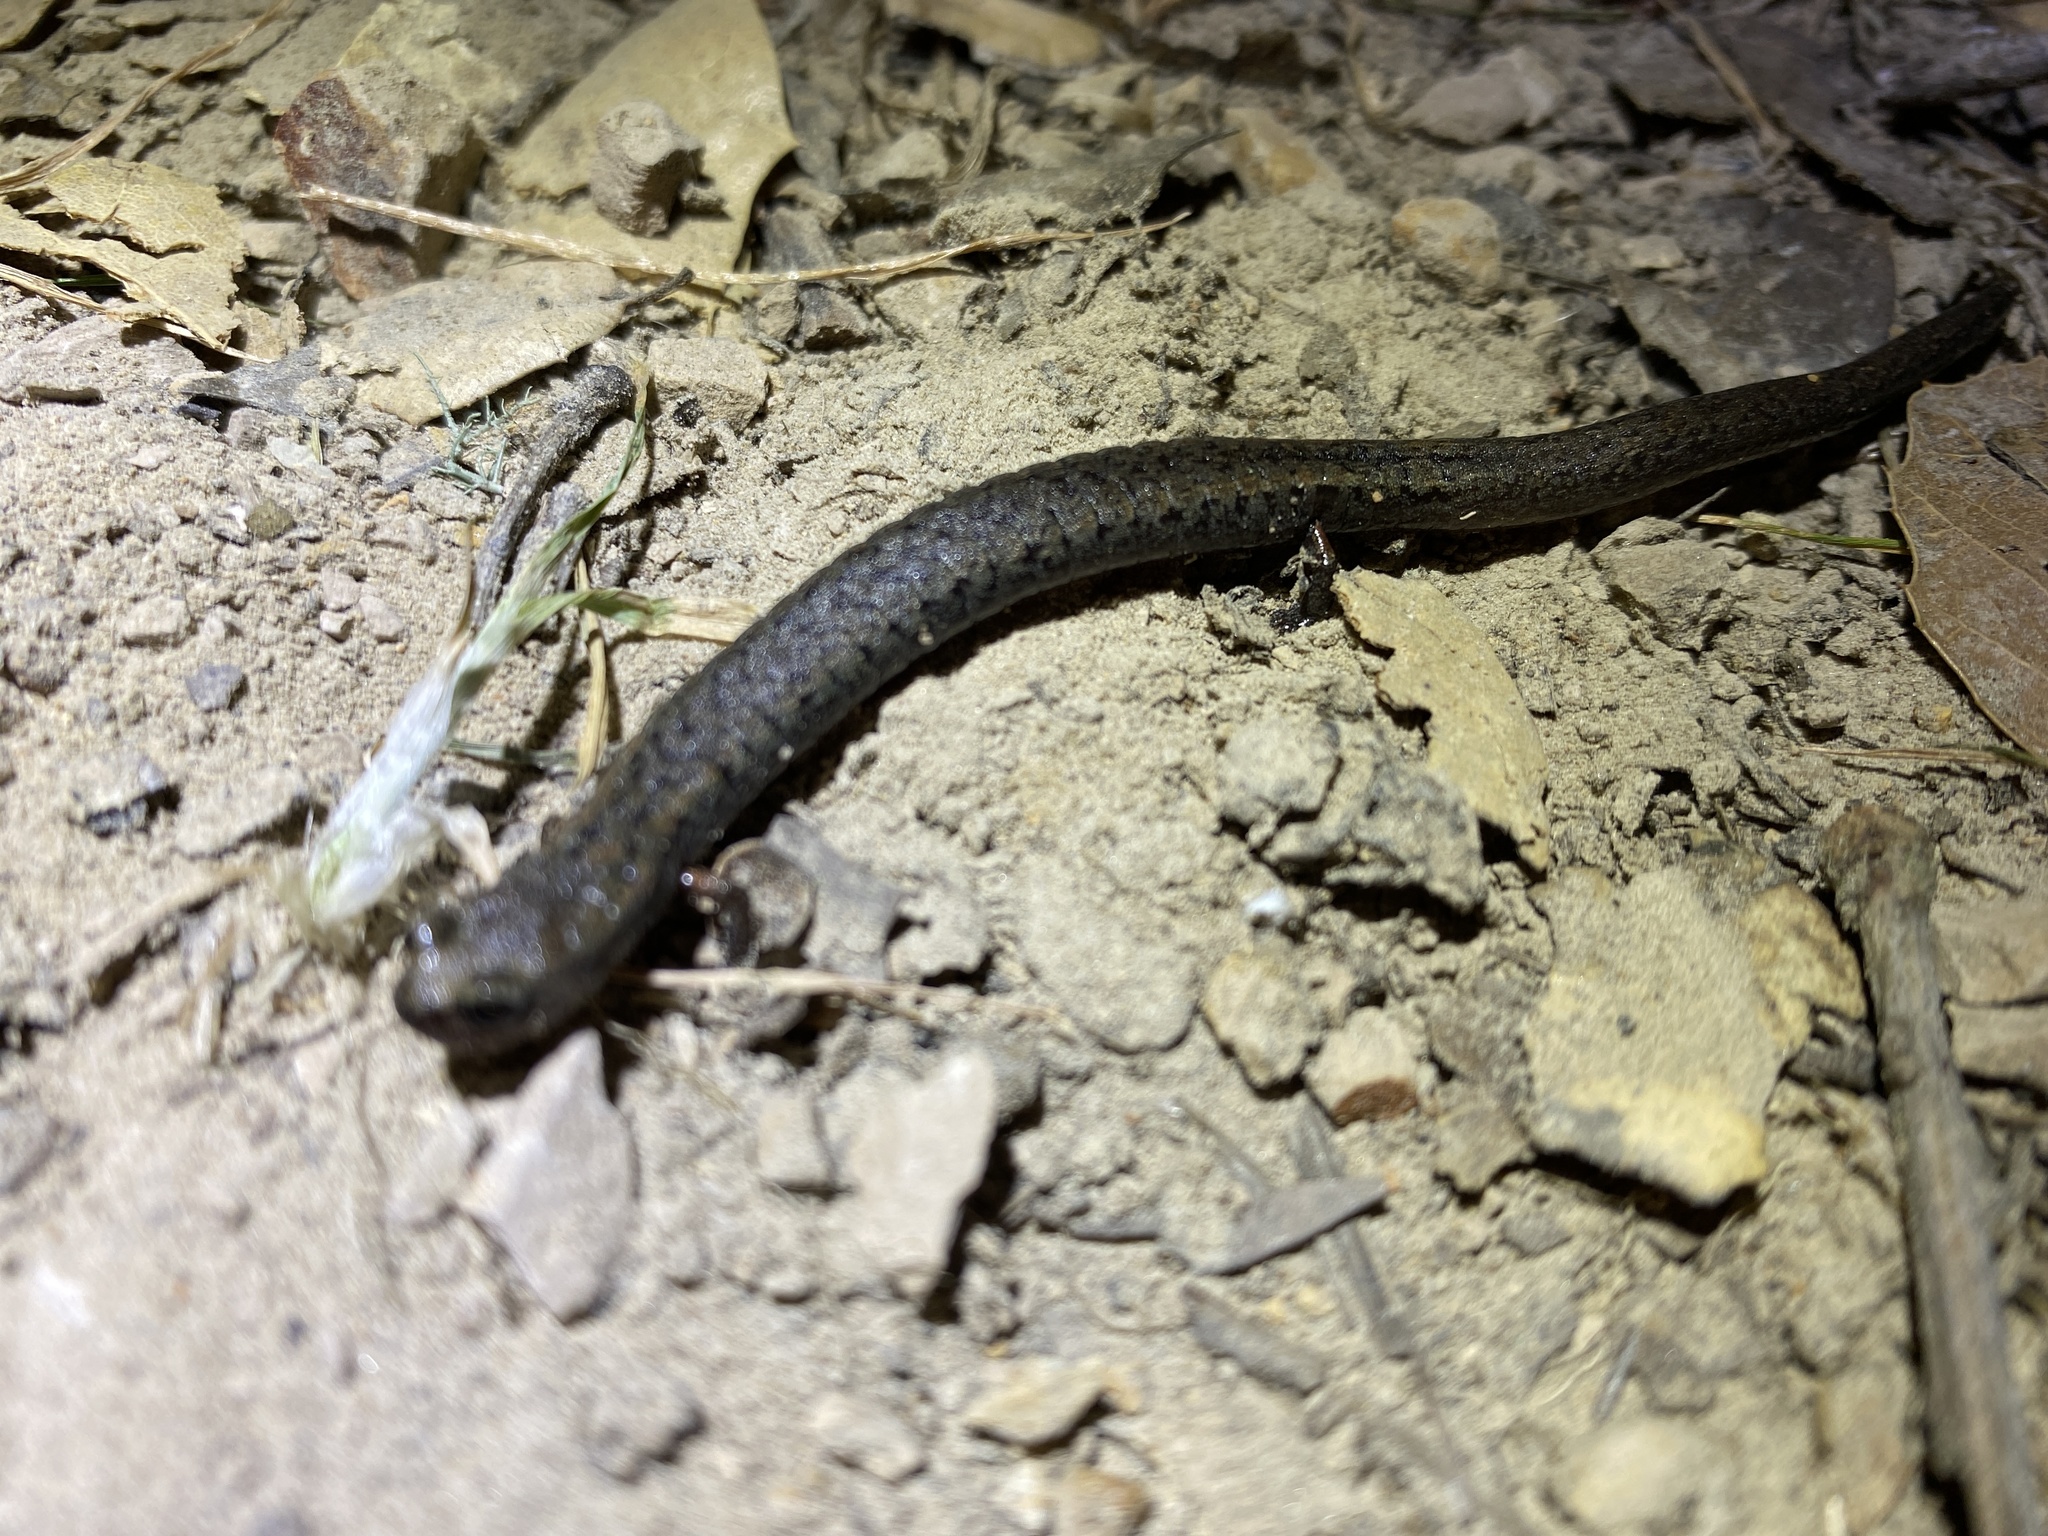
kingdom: Animalia
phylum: Chordata
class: Amphibia
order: Caudata
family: Plethodontidae
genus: Batrachoseps
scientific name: Batrachoseps attenuatus
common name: California slender salamander
